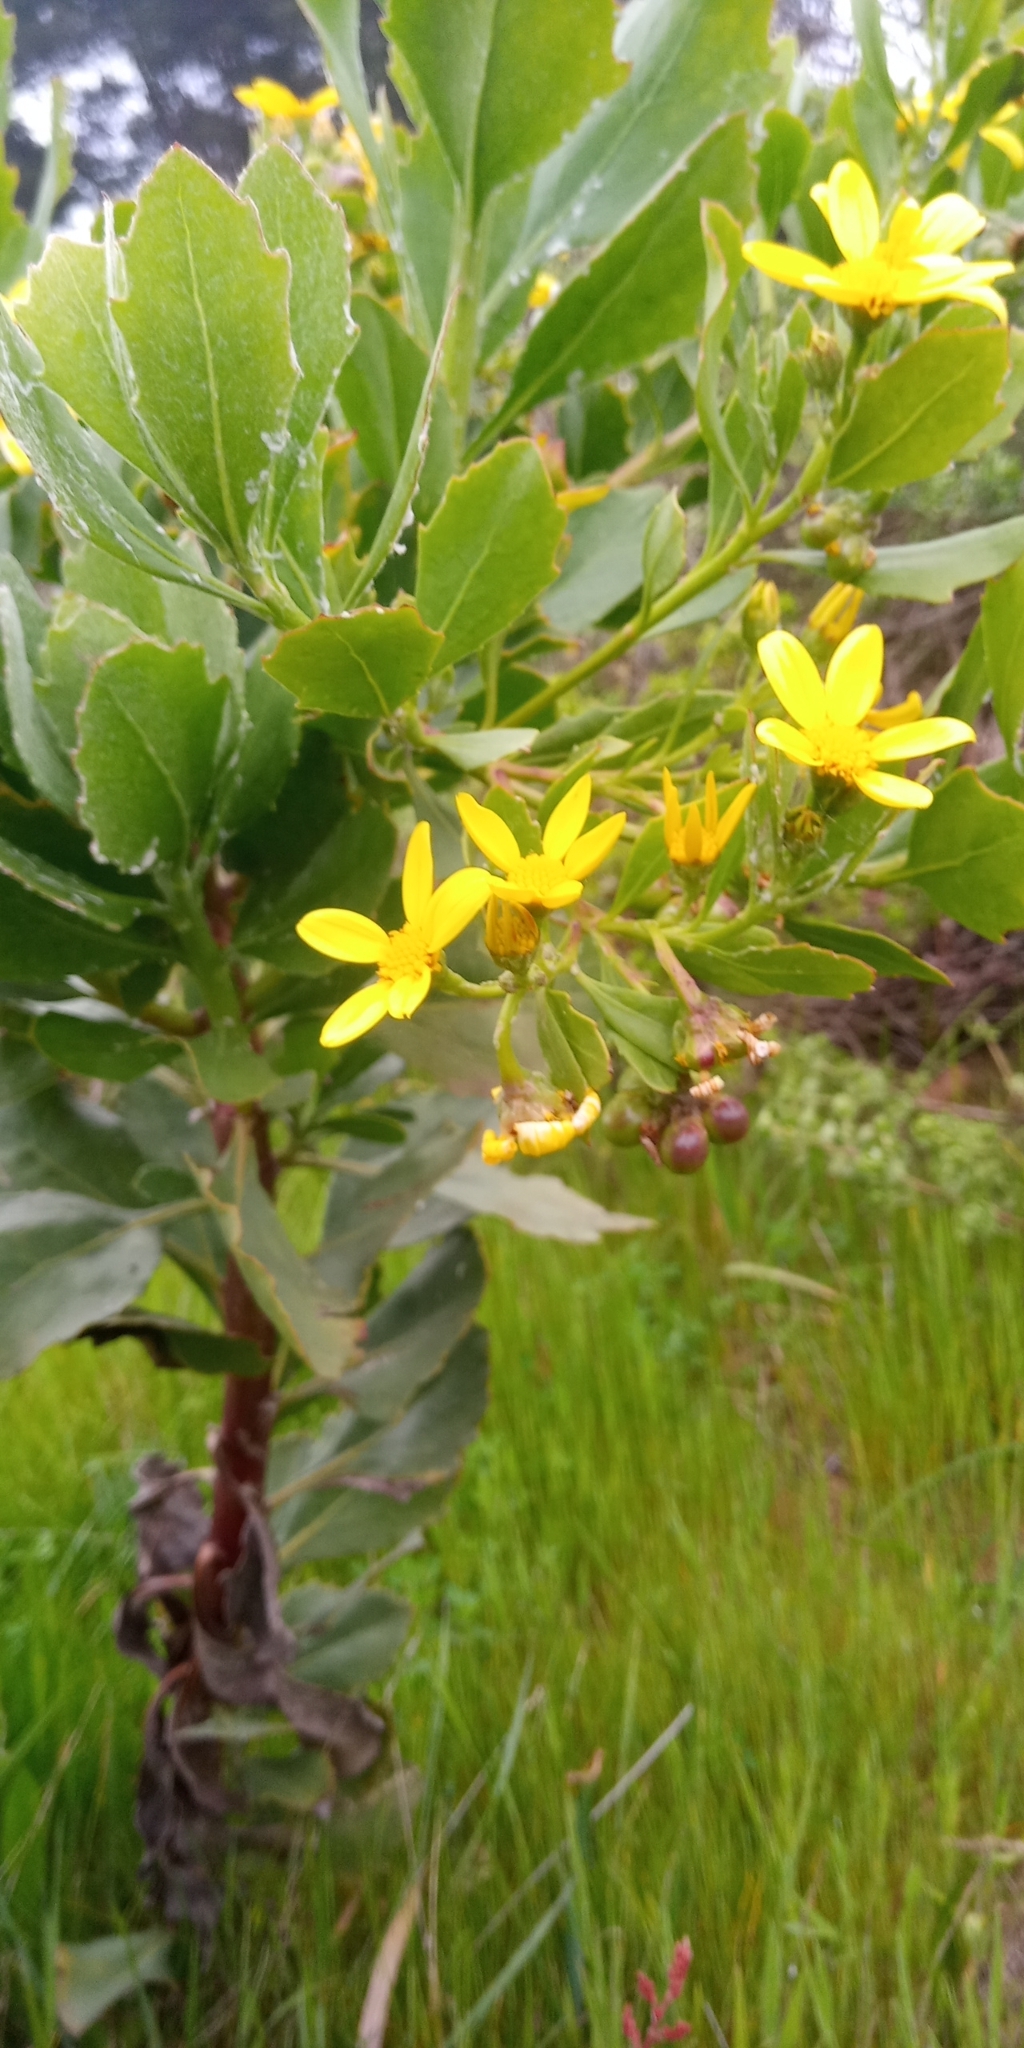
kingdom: Plantae
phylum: Tracheophyta
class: Magnoliopsida
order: Asterales
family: Asteraceae
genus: Osteospermum
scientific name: Osteospermum moniliferum
